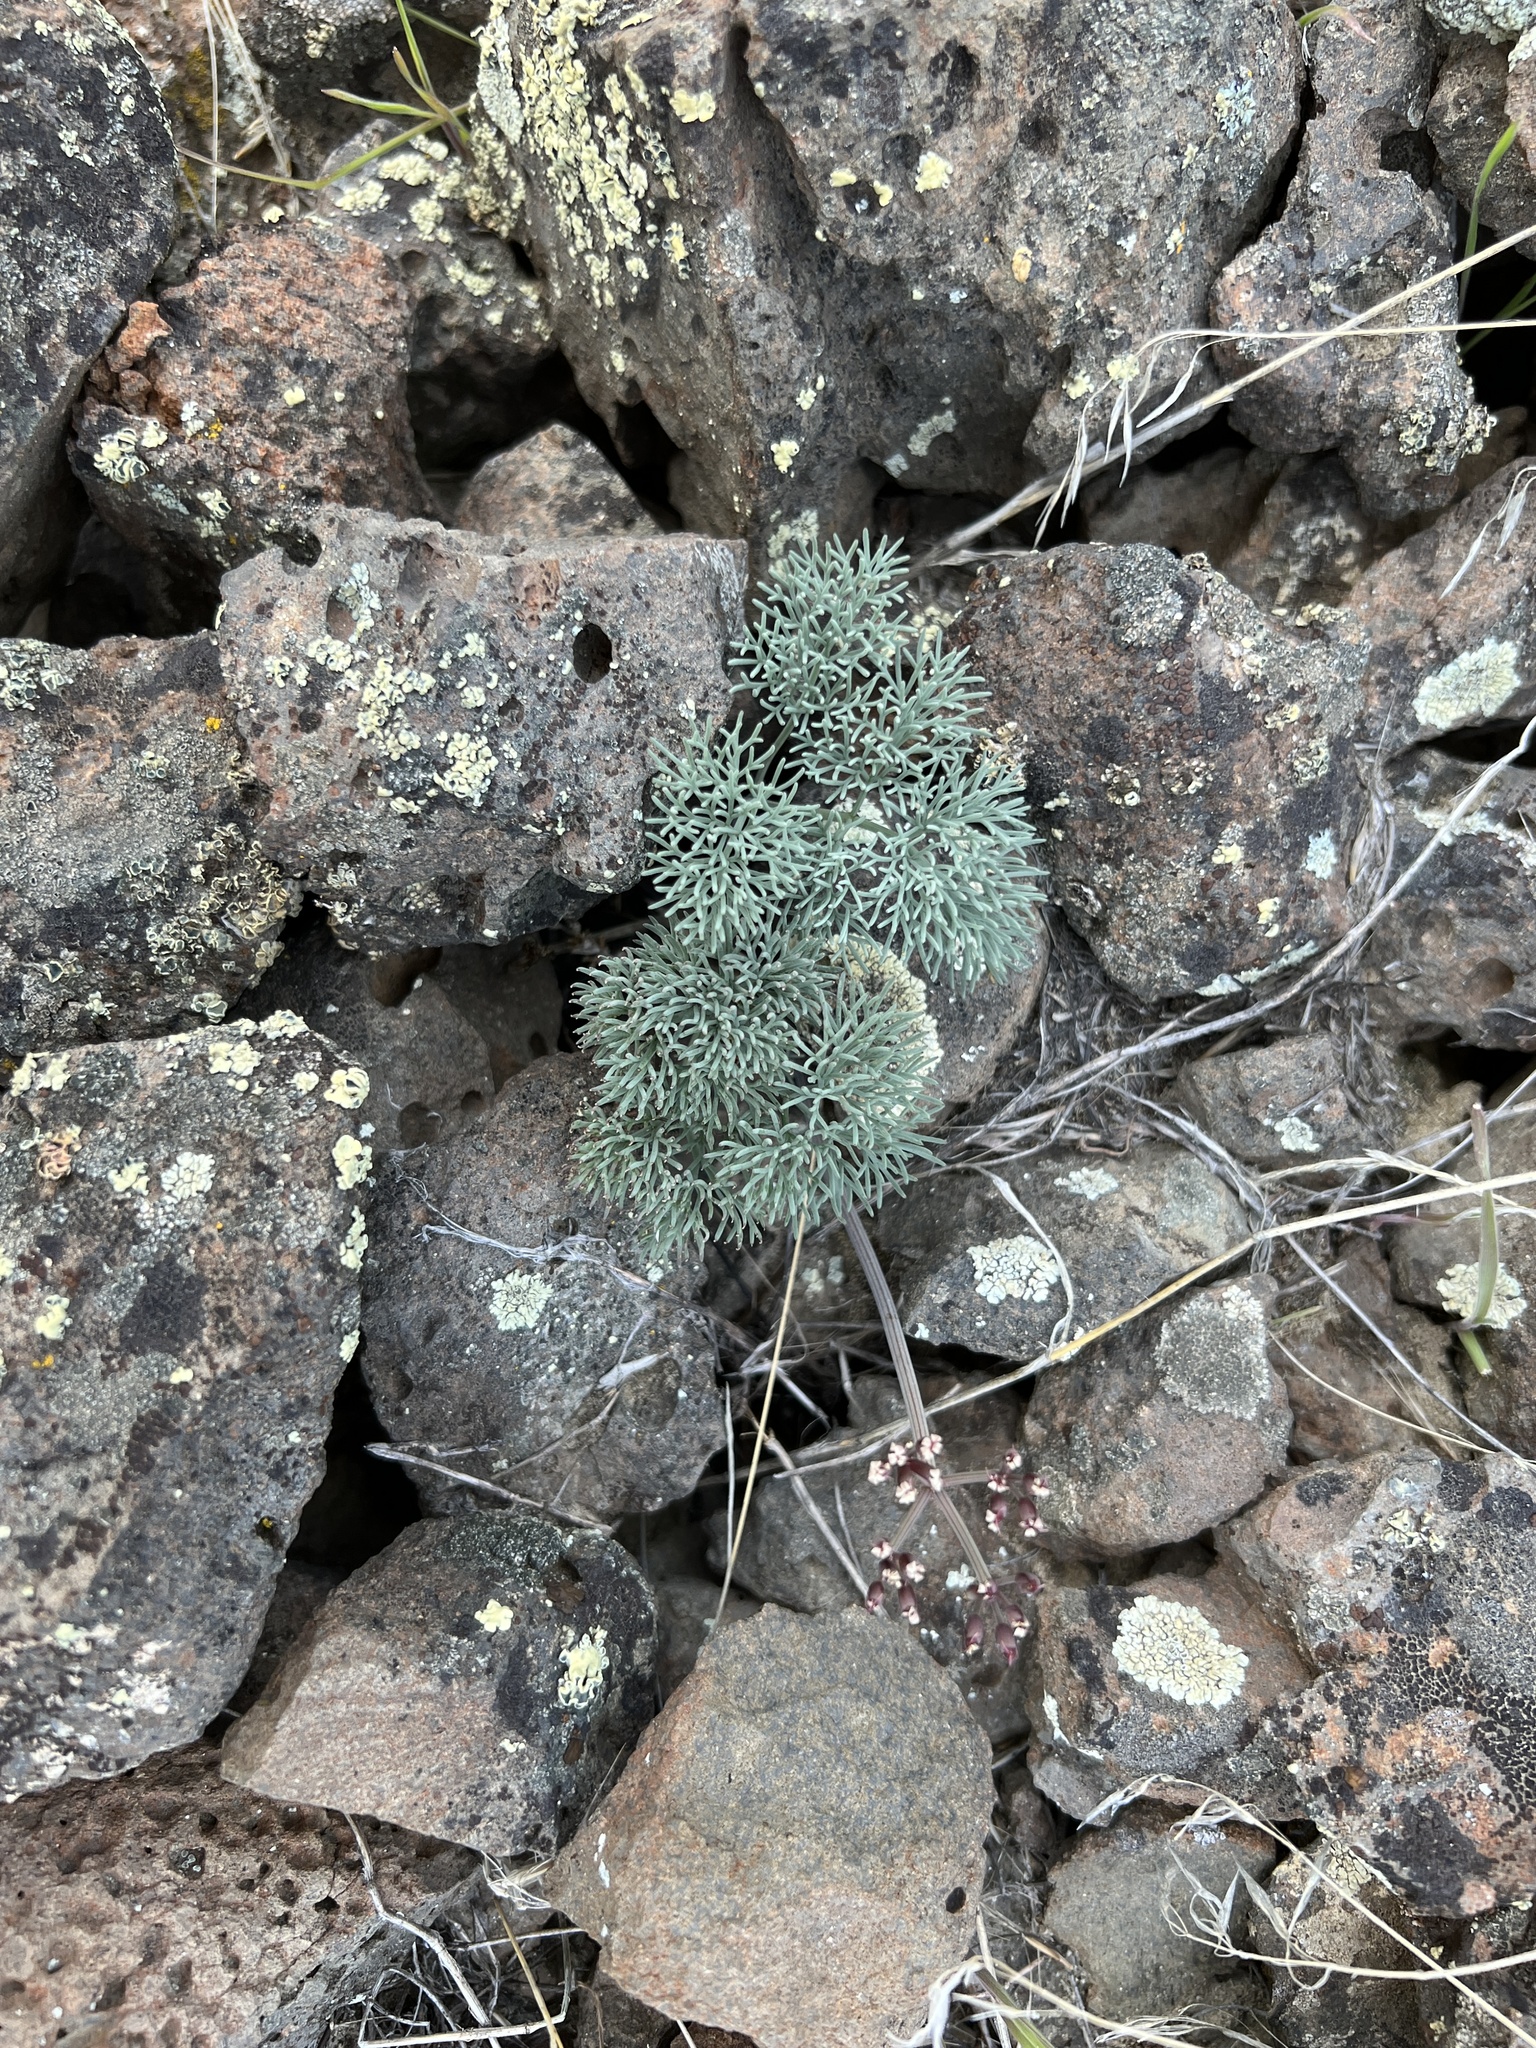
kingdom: Plantae
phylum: Tracheophyta
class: Magnoliopsida
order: Apiales
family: Apiaceae
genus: Lomatium
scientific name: Lomatium tuberosum
